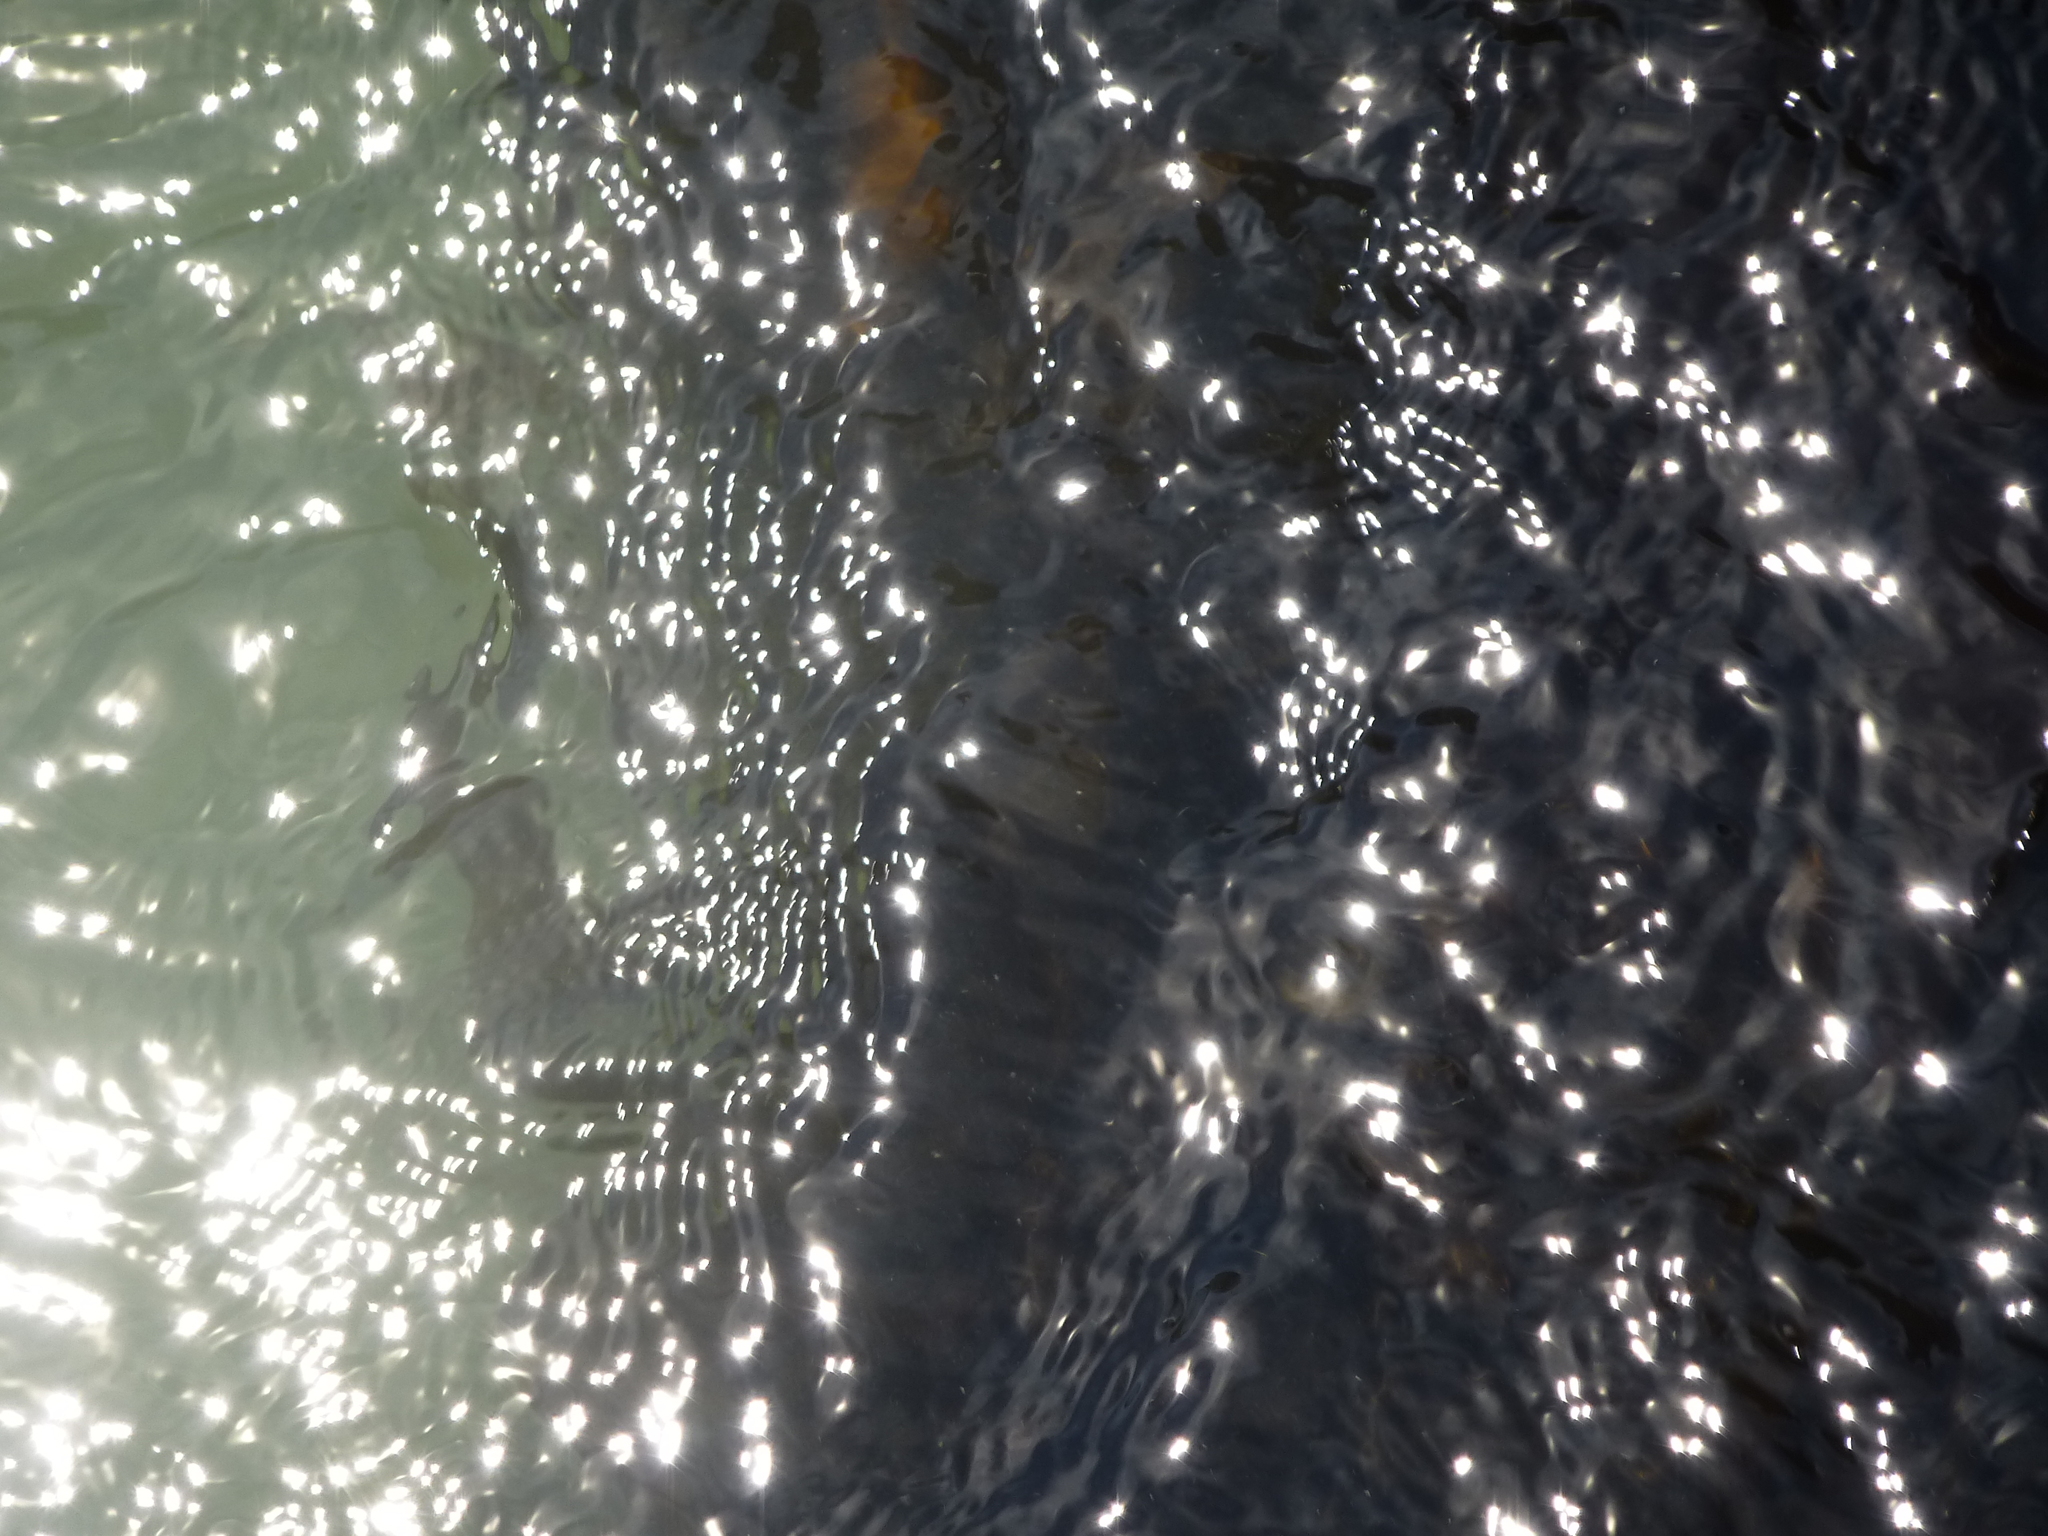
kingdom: Chromista
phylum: Ochrophyta
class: Phaeophyceae
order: Laminariales
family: Alariaceae
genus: Undaria
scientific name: Undaria pinnatifida
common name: Asian kelp
